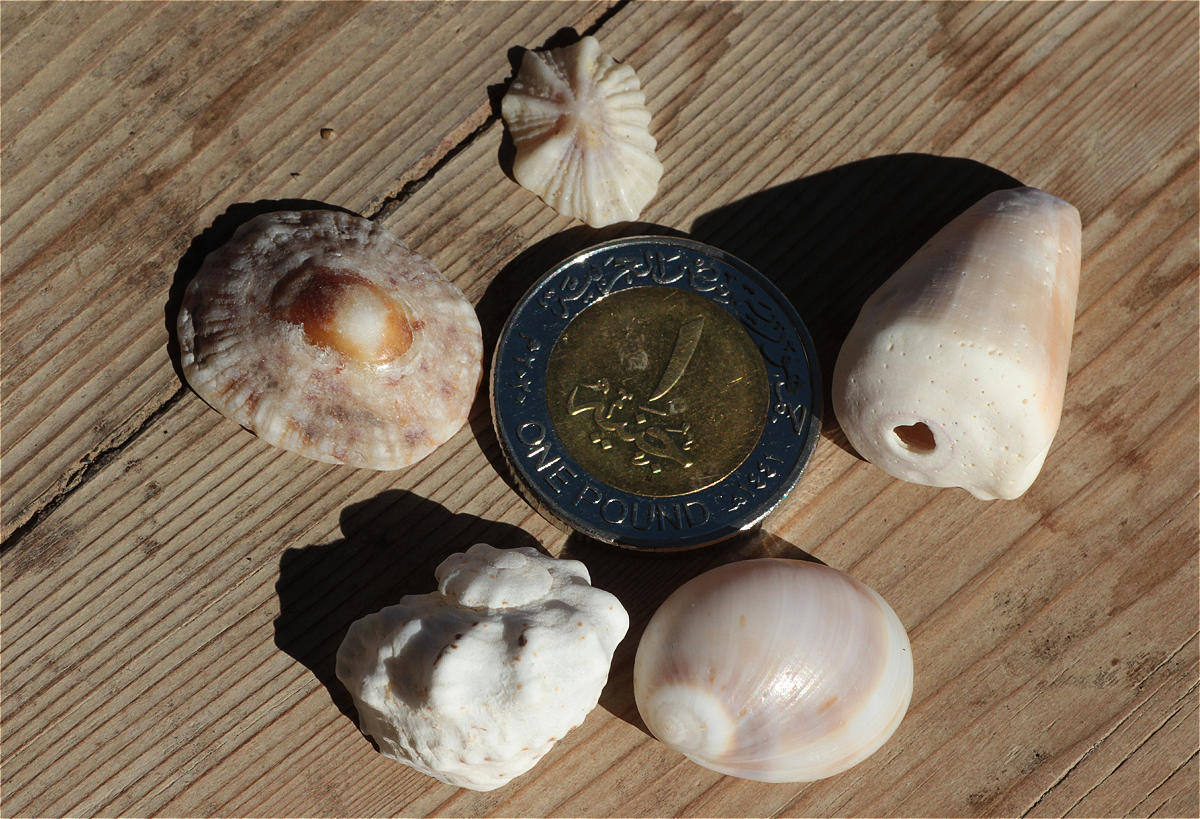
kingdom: Animalia
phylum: Mollusca
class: Gastropoda
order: Littorinimorpha
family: Naticidae
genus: Mammilla
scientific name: Mammilla melanostoma
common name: Black-mouth moonsnail
